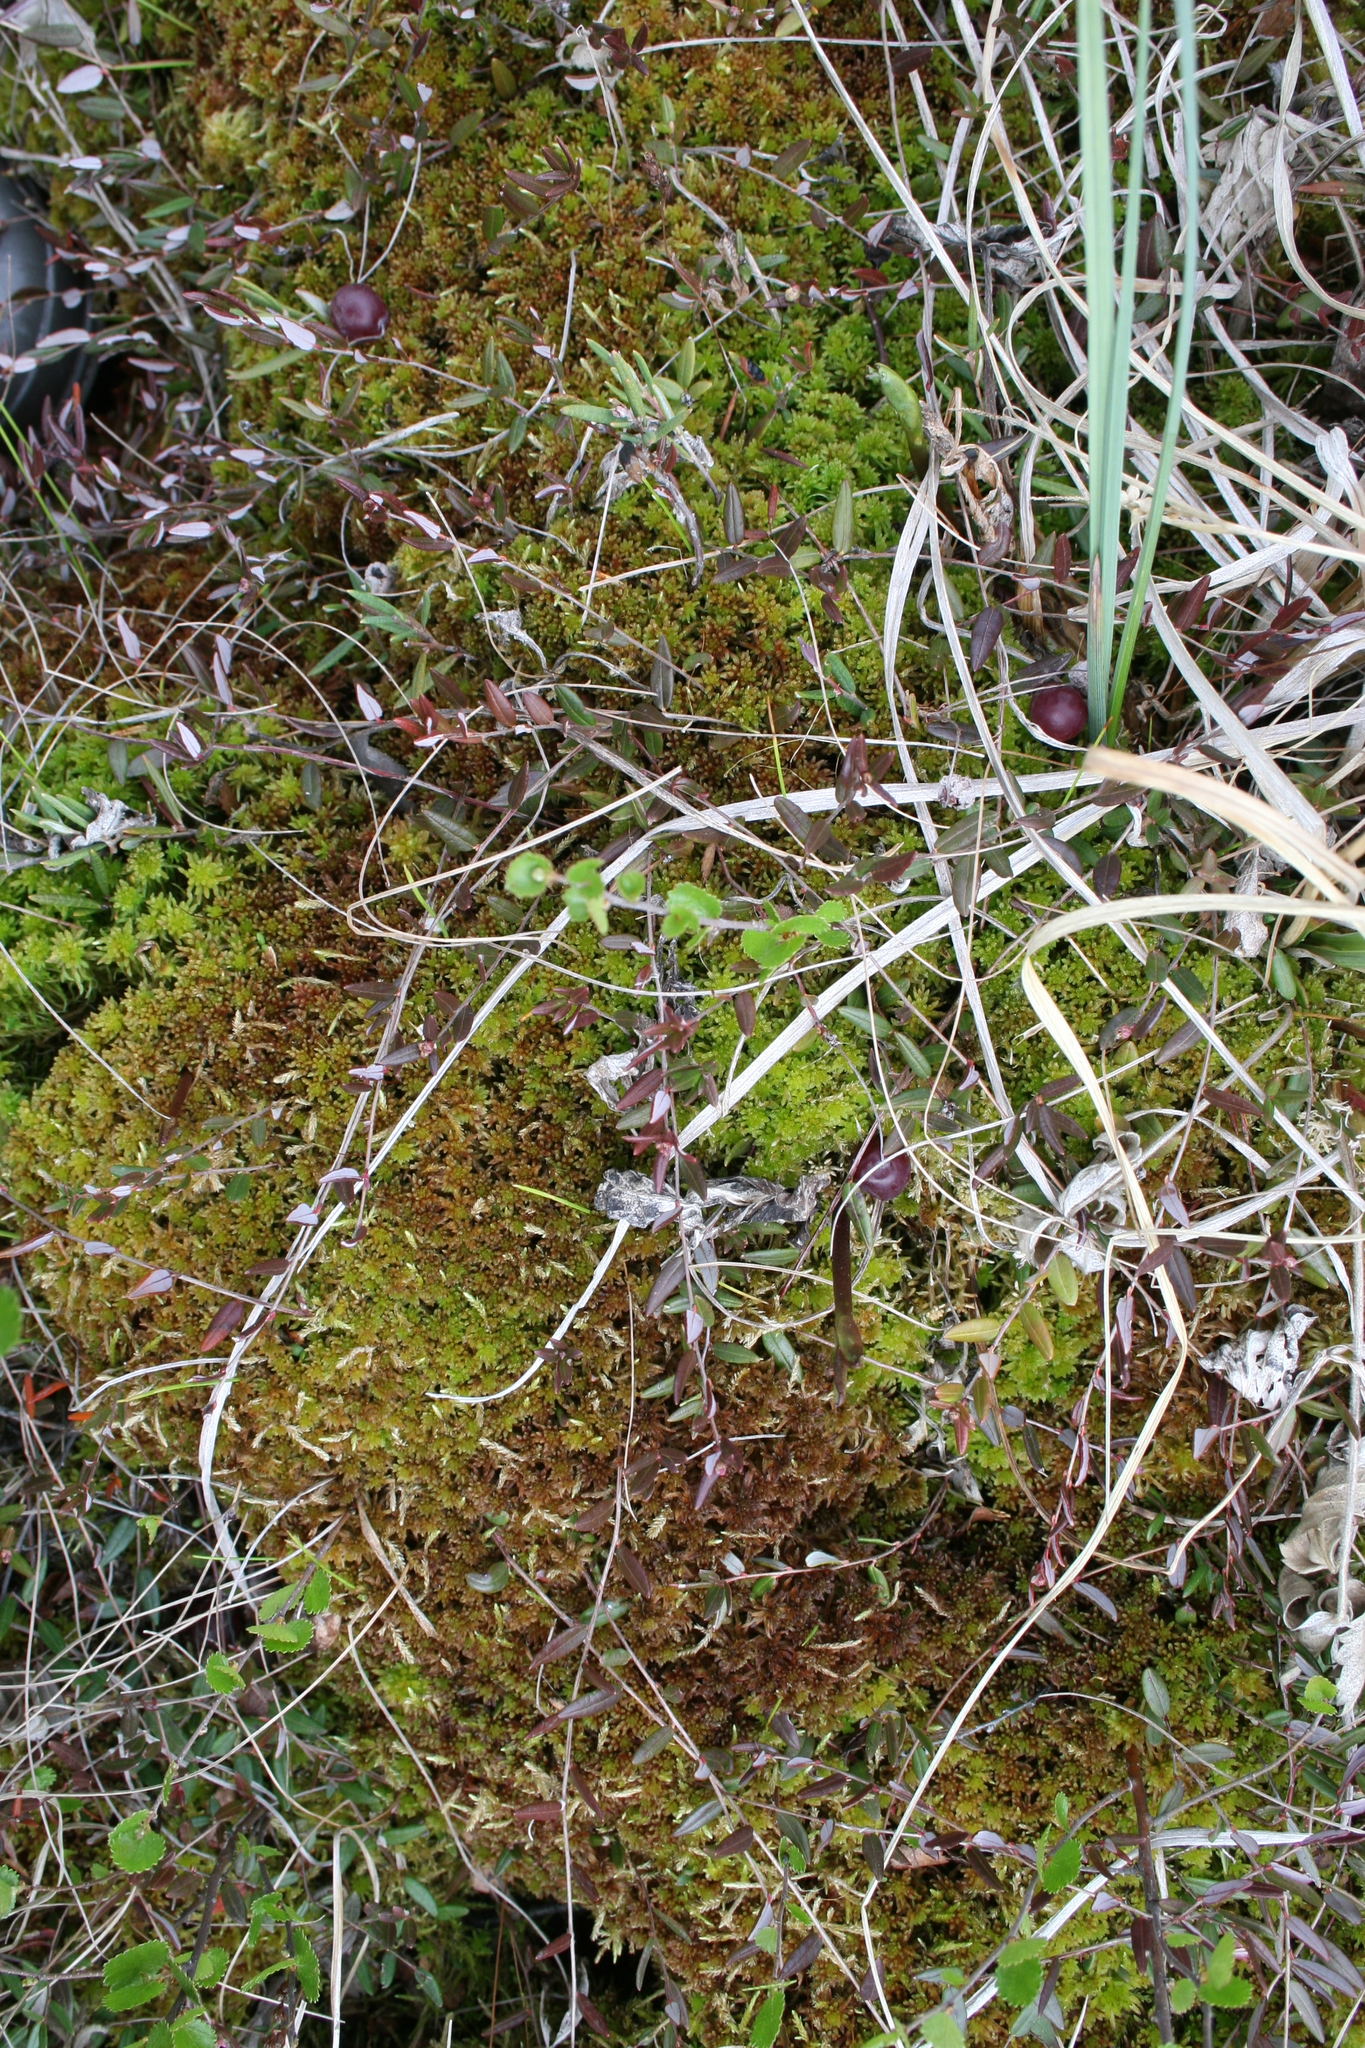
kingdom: Plantae
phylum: Tracheophyta
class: Magnoliopsida
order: Ericales
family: Ericaceae
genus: Vaccinium
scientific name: Vaccinium microcarpum
